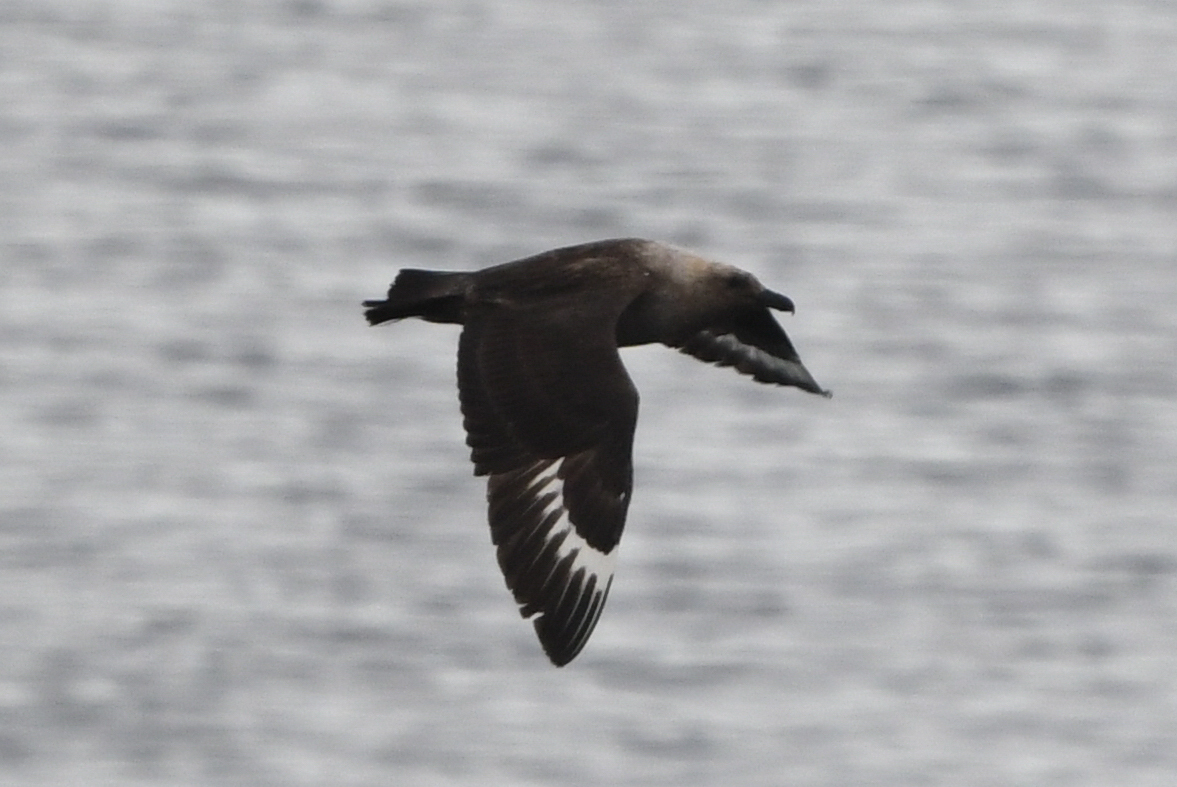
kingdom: Animalia
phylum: Chordata
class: Aves
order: Charadriiformes
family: Stercorariidae
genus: Stercorarius
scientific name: Stercorarius maccormicki
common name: South polar skua
